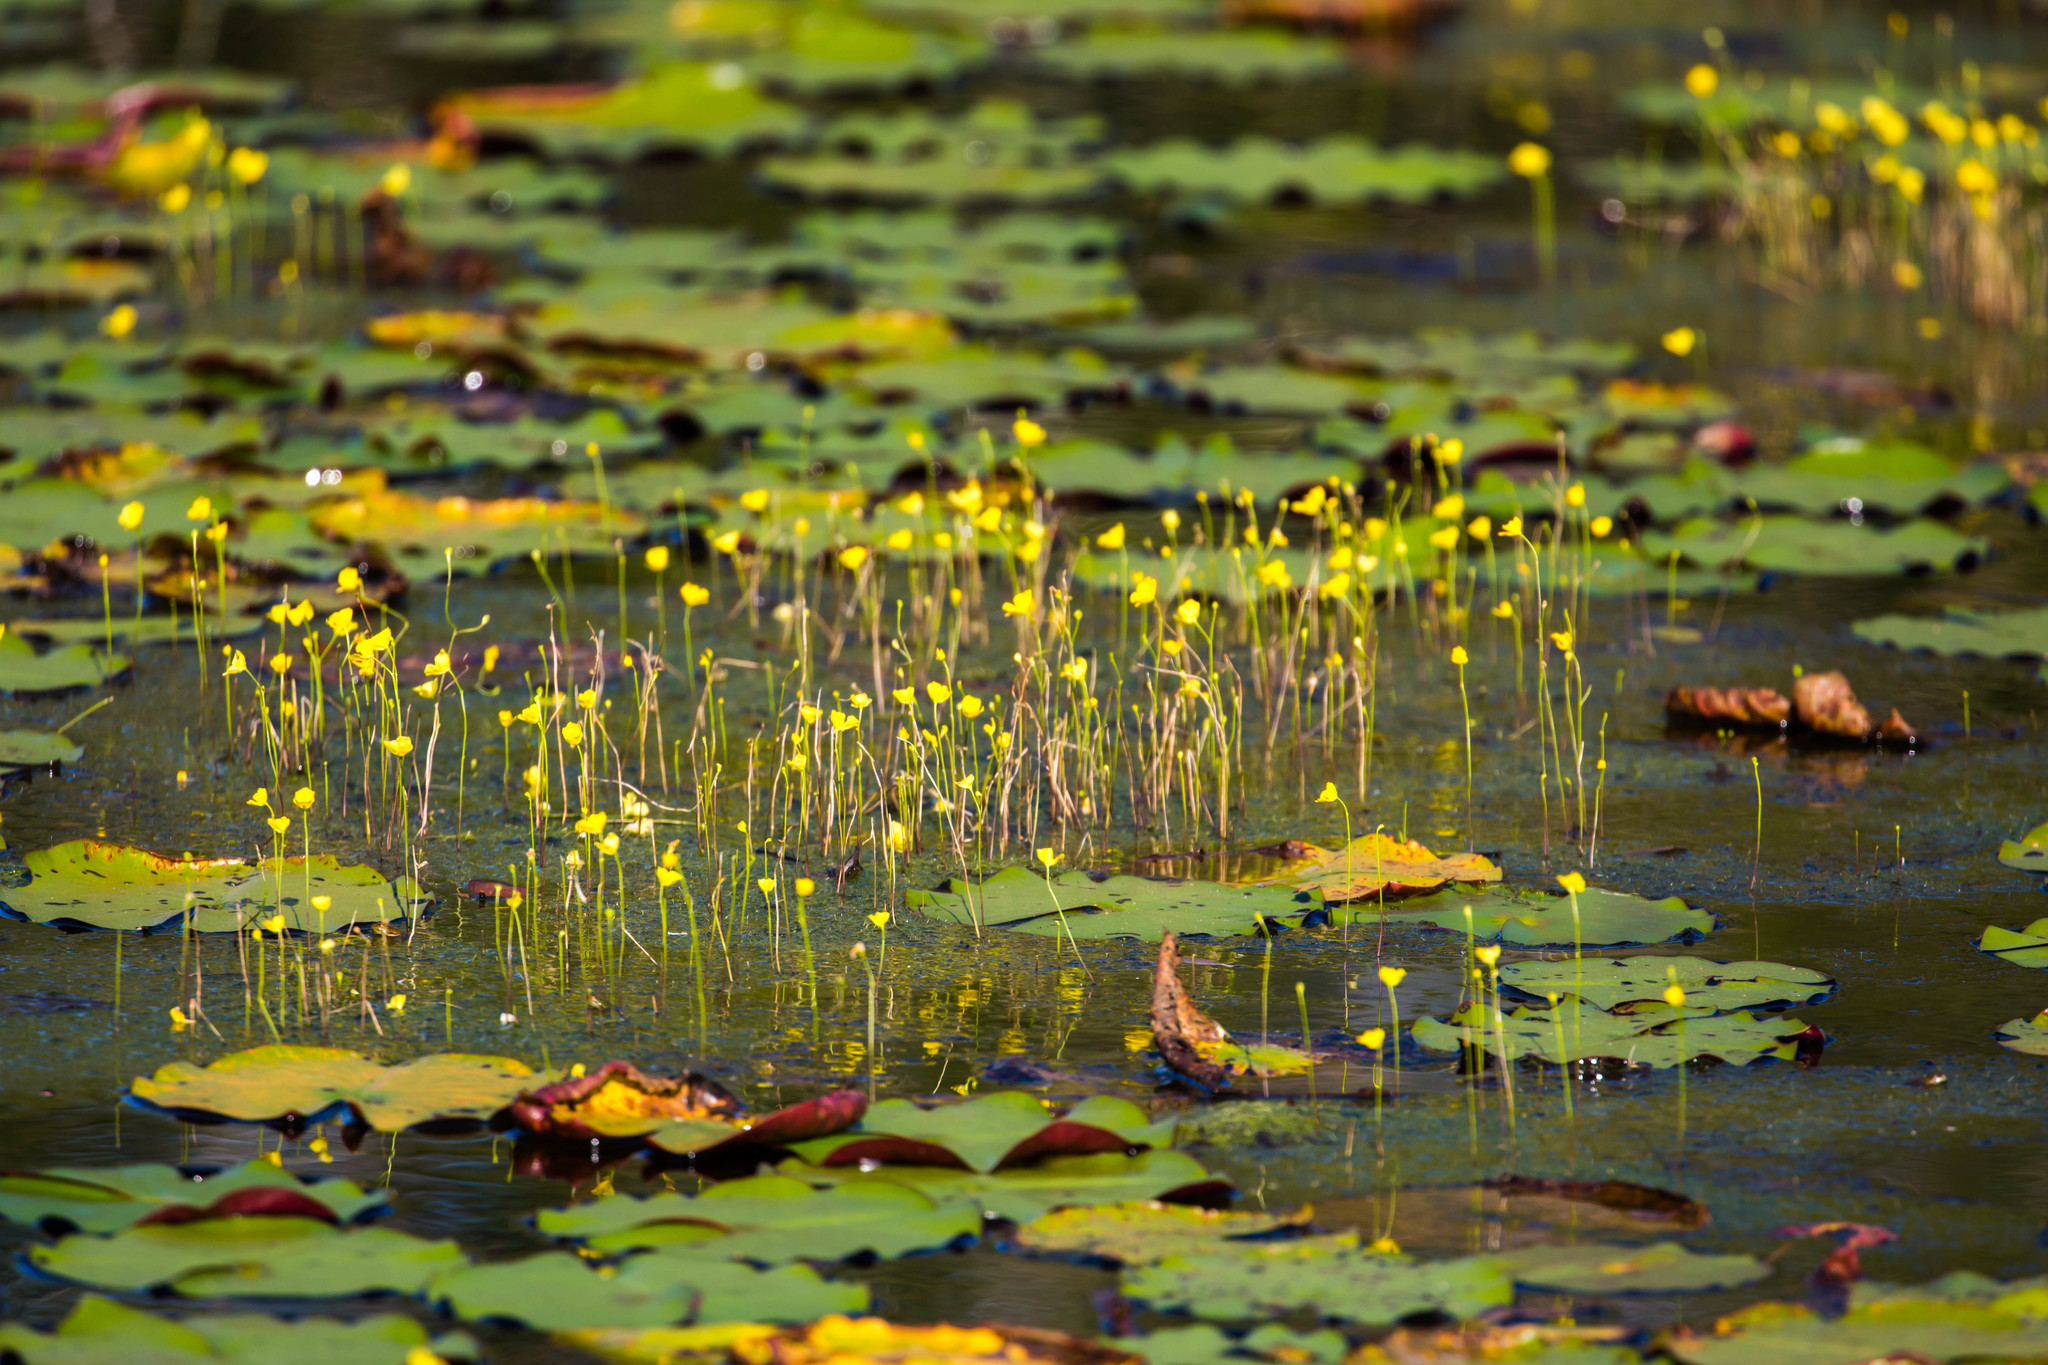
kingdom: Plantae
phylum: Tracheophyta
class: Magnoliopsida
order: Lamiales
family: Lentibulariaceae
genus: Utricularia
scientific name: Utricularia gibba
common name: Humped bladderwort
